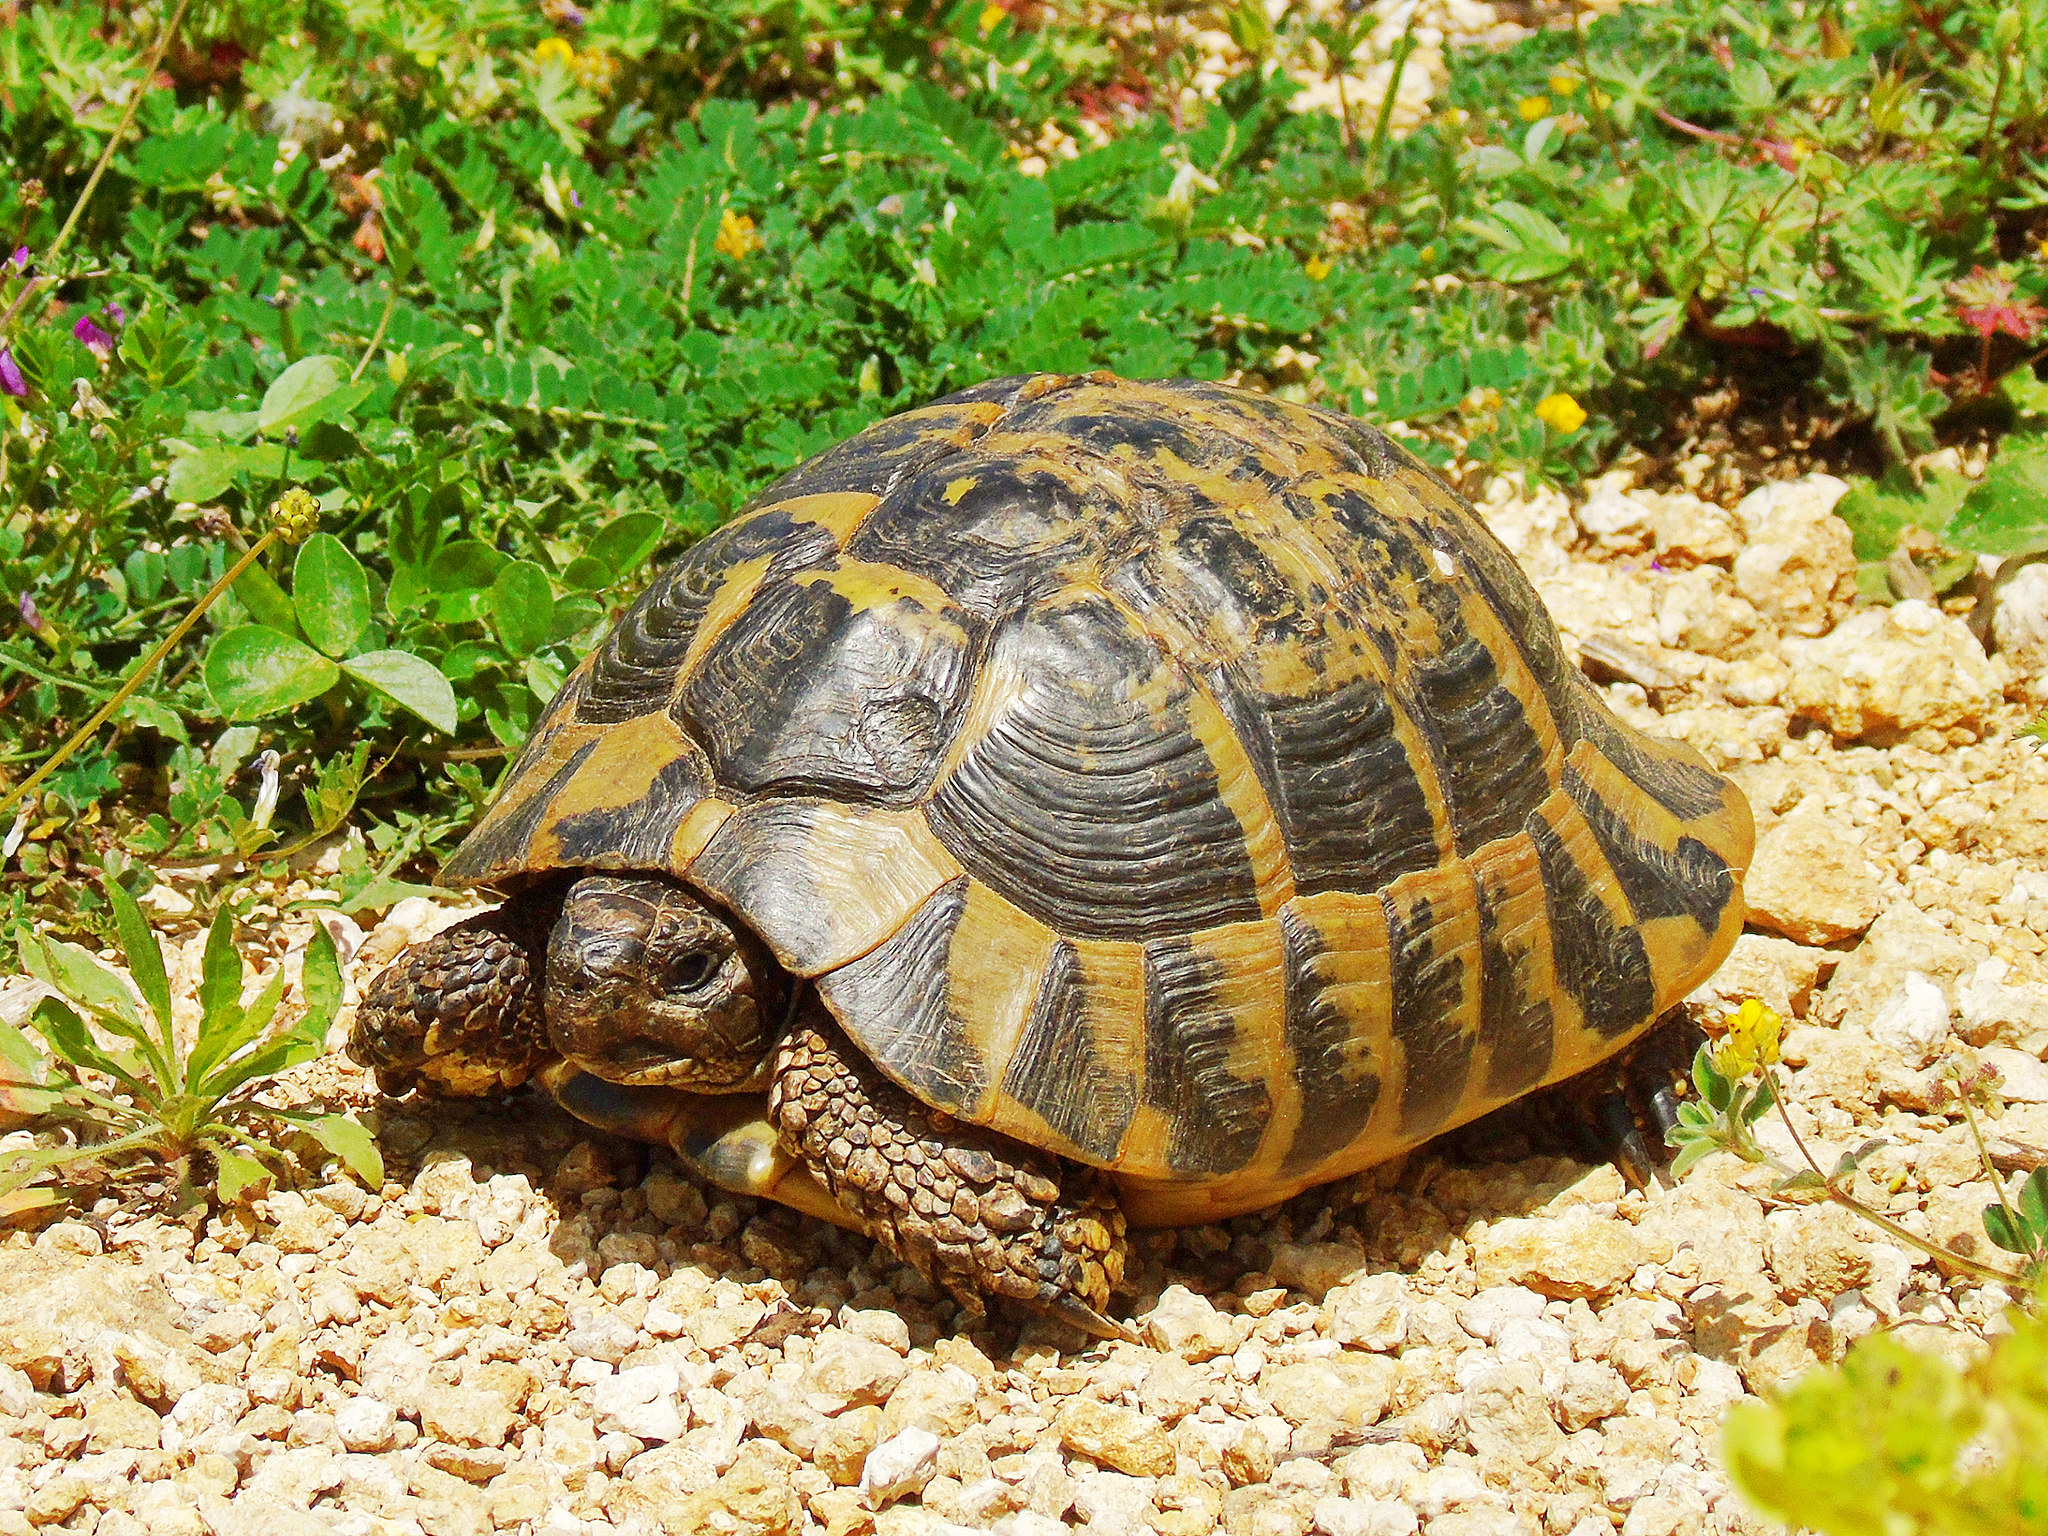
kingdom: Animalia
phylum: Chordata
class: Testudines
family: Testudinidae
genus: Testudo
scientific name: Testudo hermanni
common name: Hermann's tortoise
